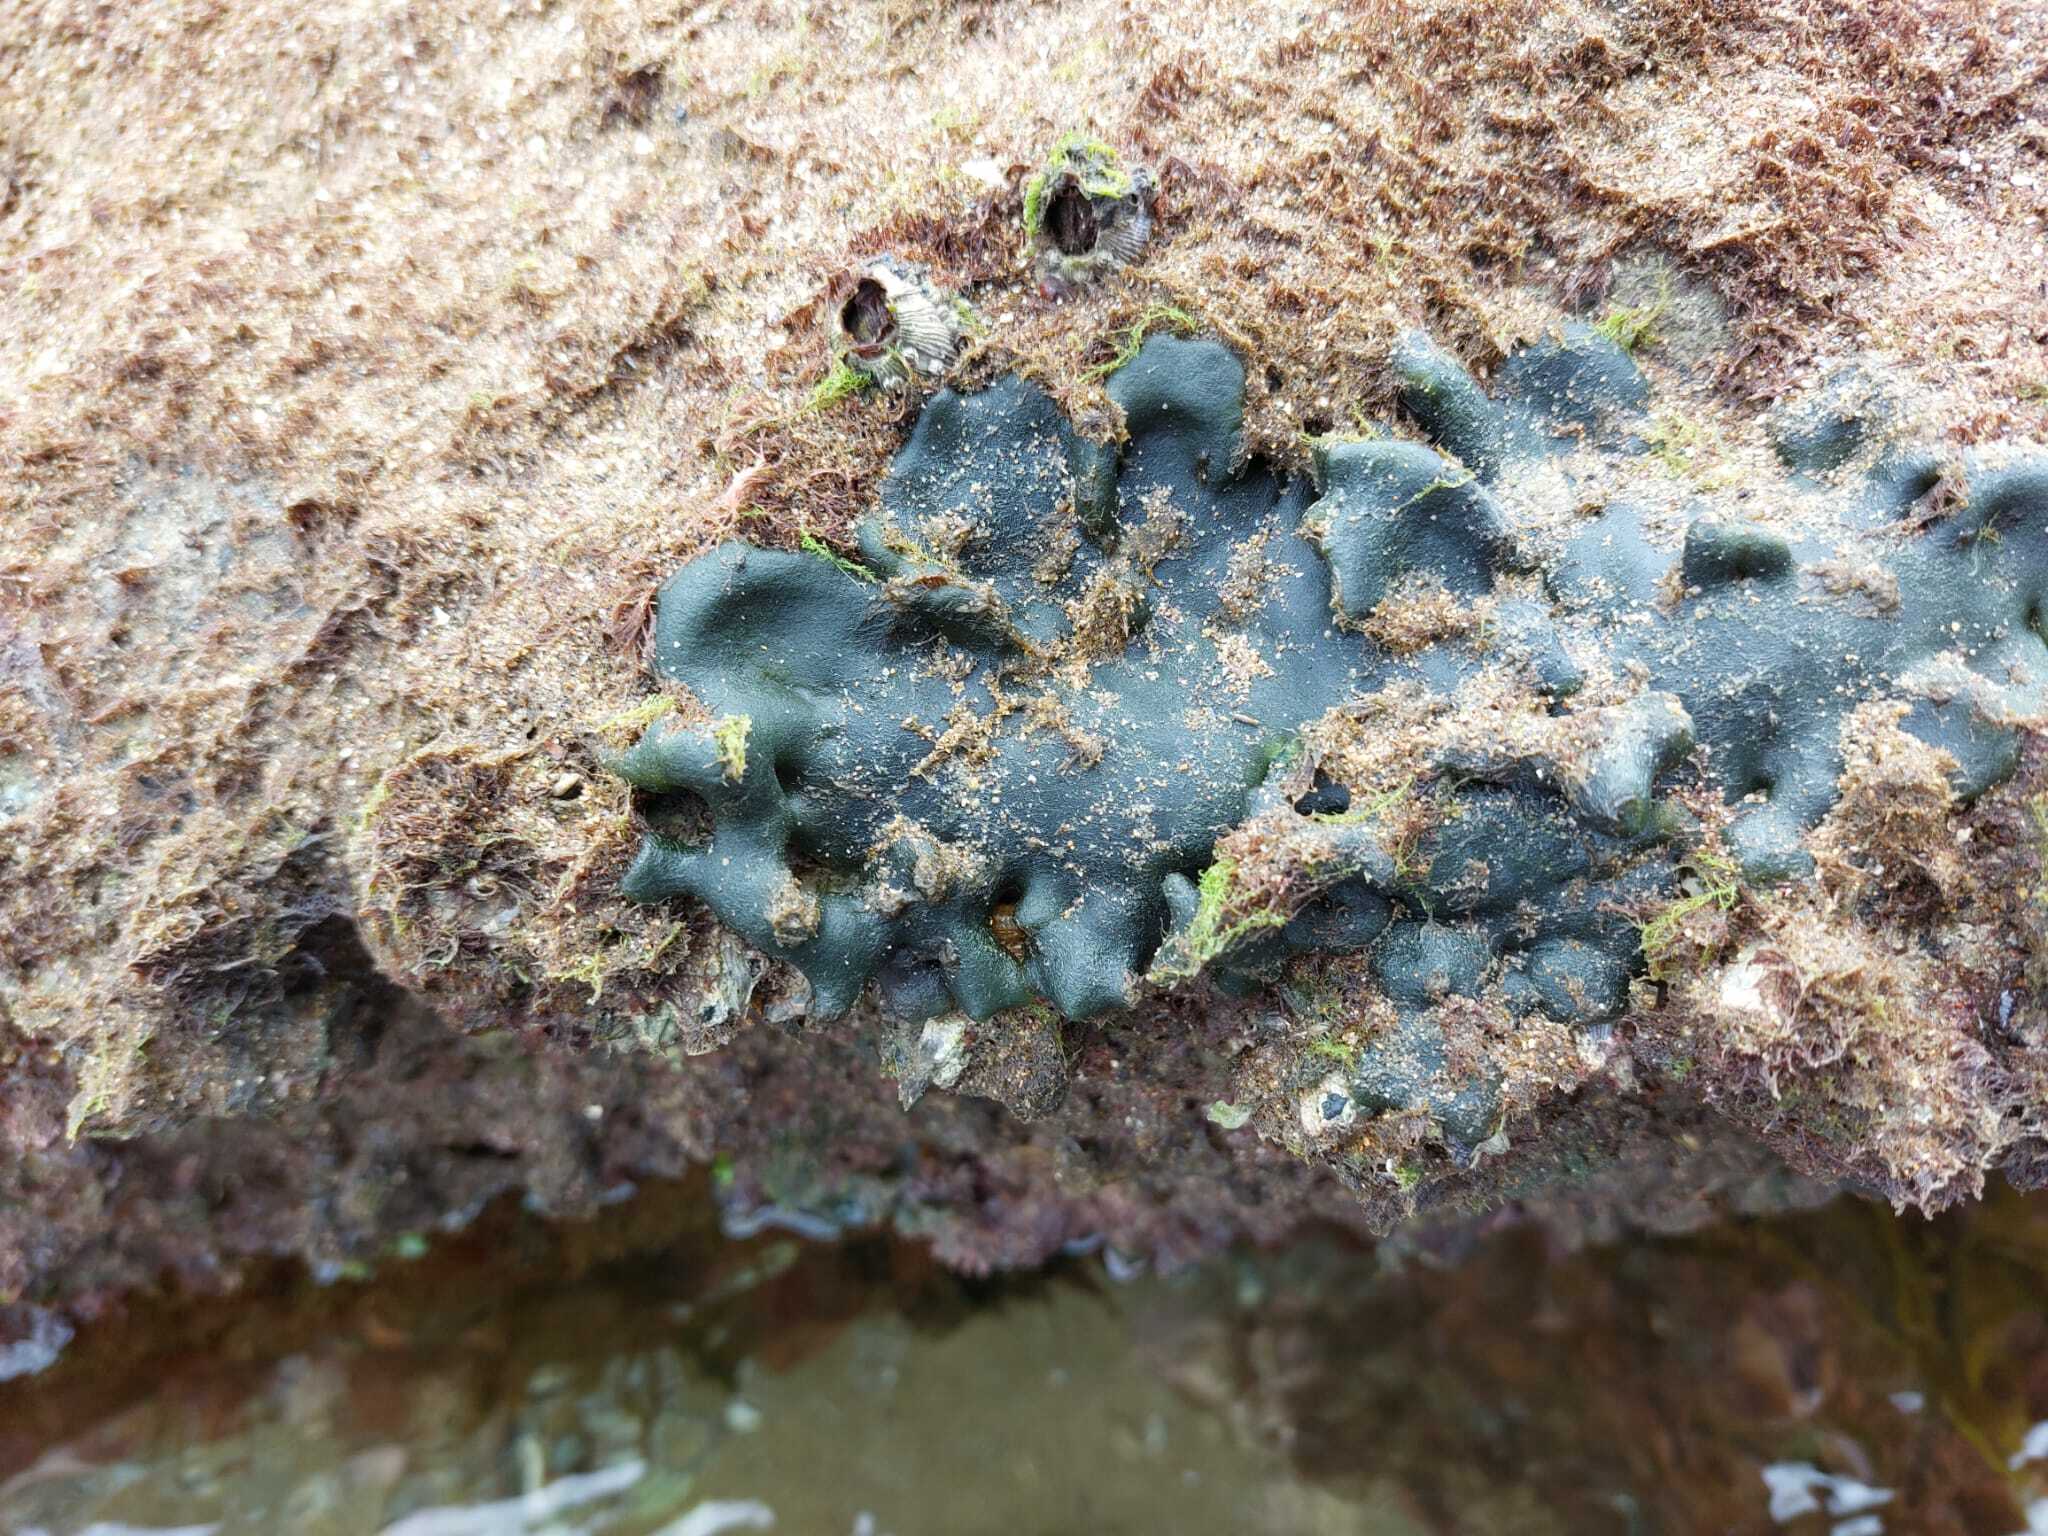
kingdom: Plantae
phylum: Chlorophyta
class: Ulvophyceae
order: Bryopsidales
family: Codiaceae
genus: Codium
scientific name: Codium adhaerens
